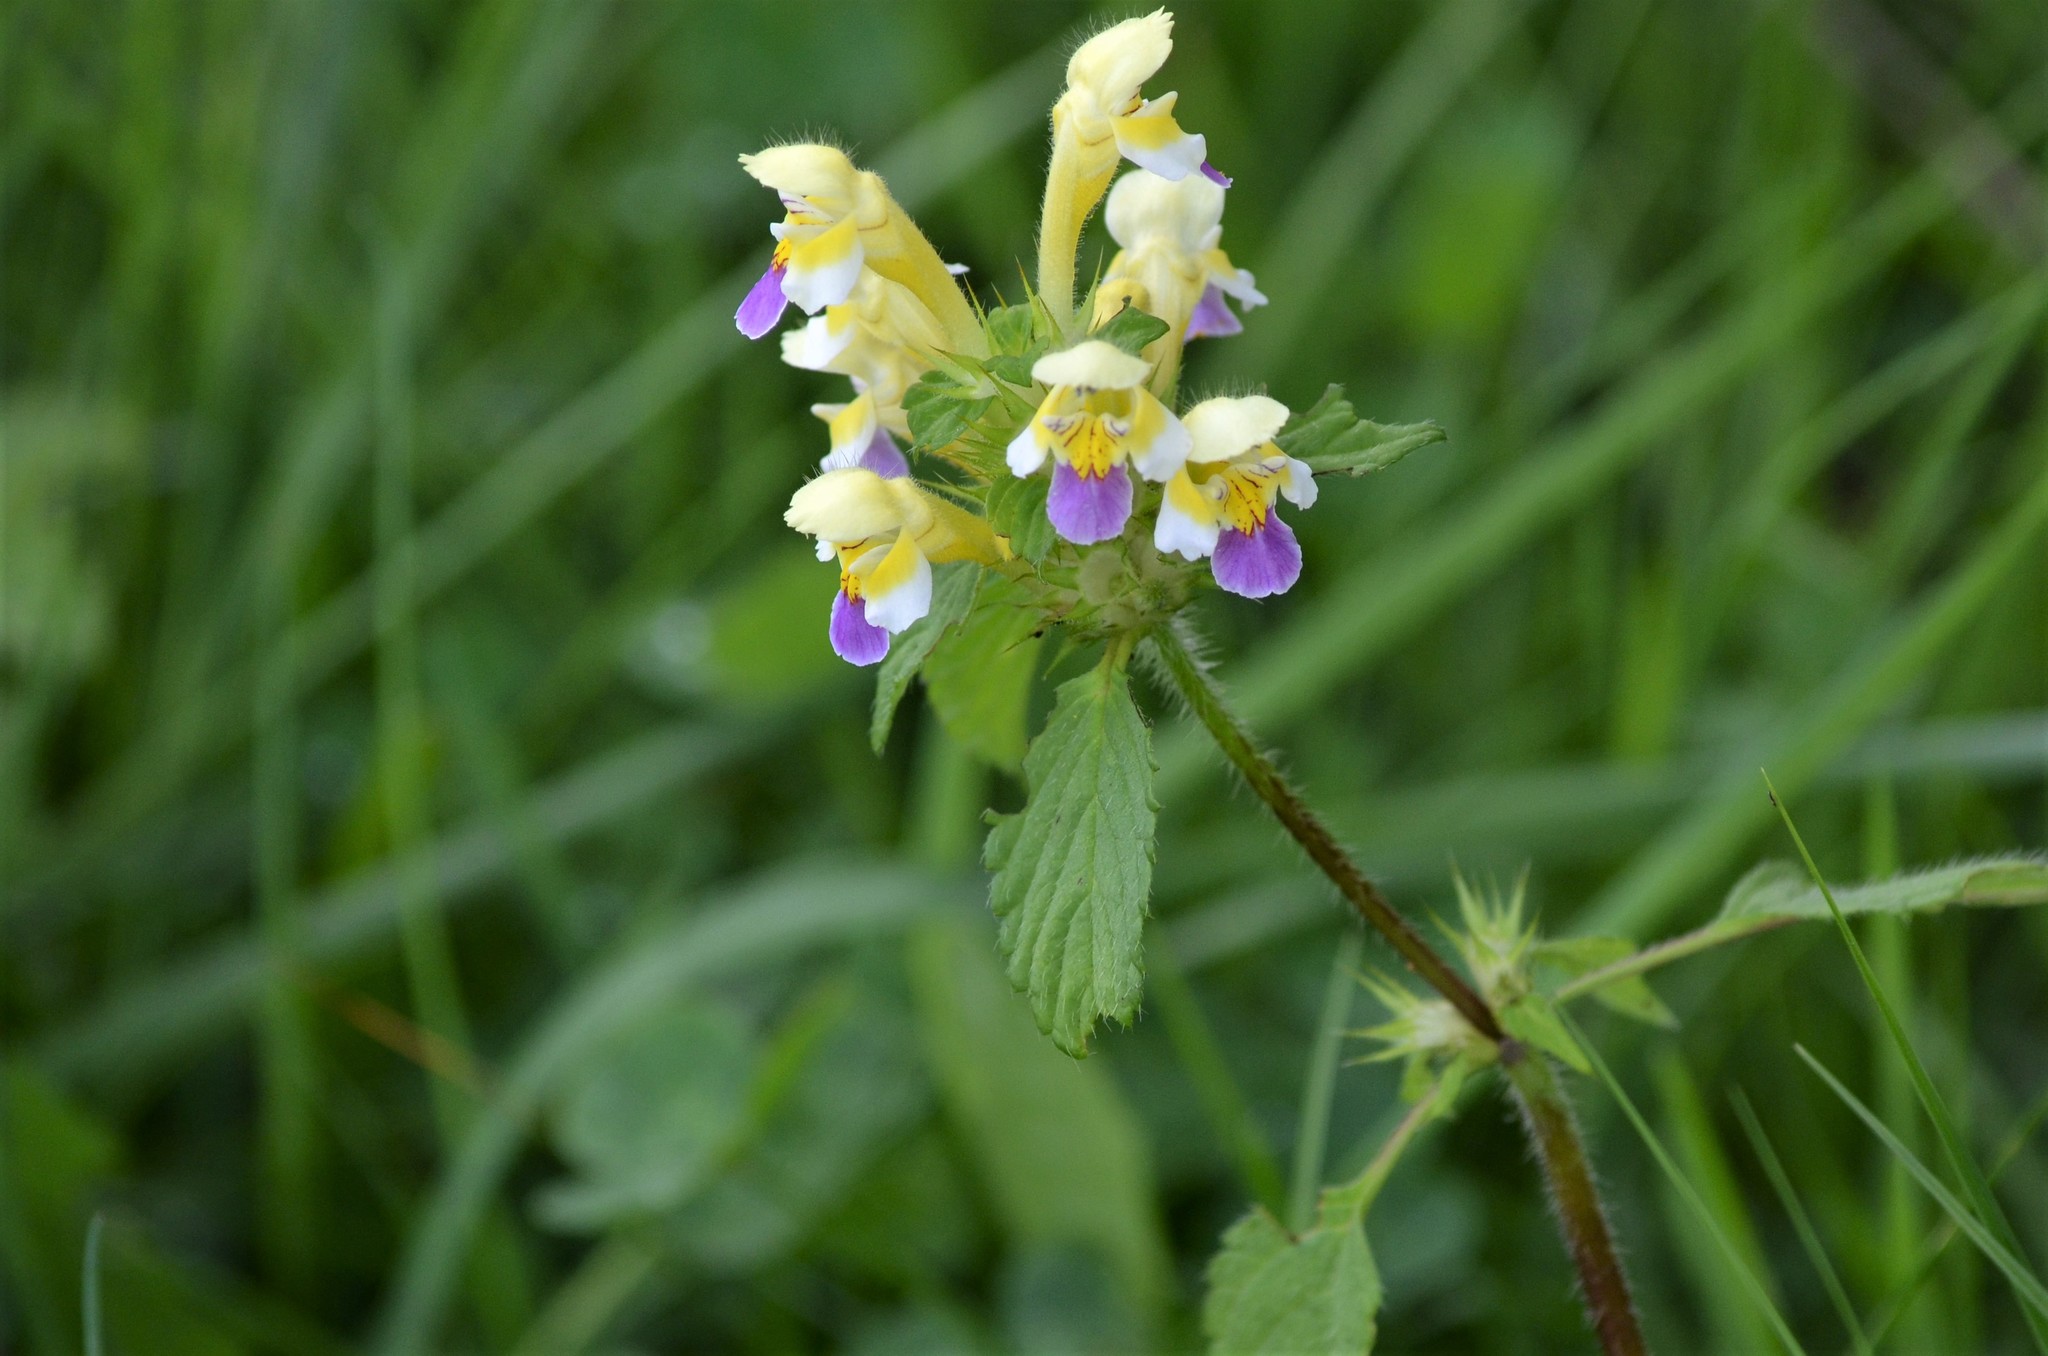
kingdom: Plantae
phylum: Tracheophyta
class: Magnoliopsida
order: Lamiales
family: Lamiaceae
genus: Galeopsis
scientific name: Galeopsis speciosa
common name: Large-flowered hemp-nettle
